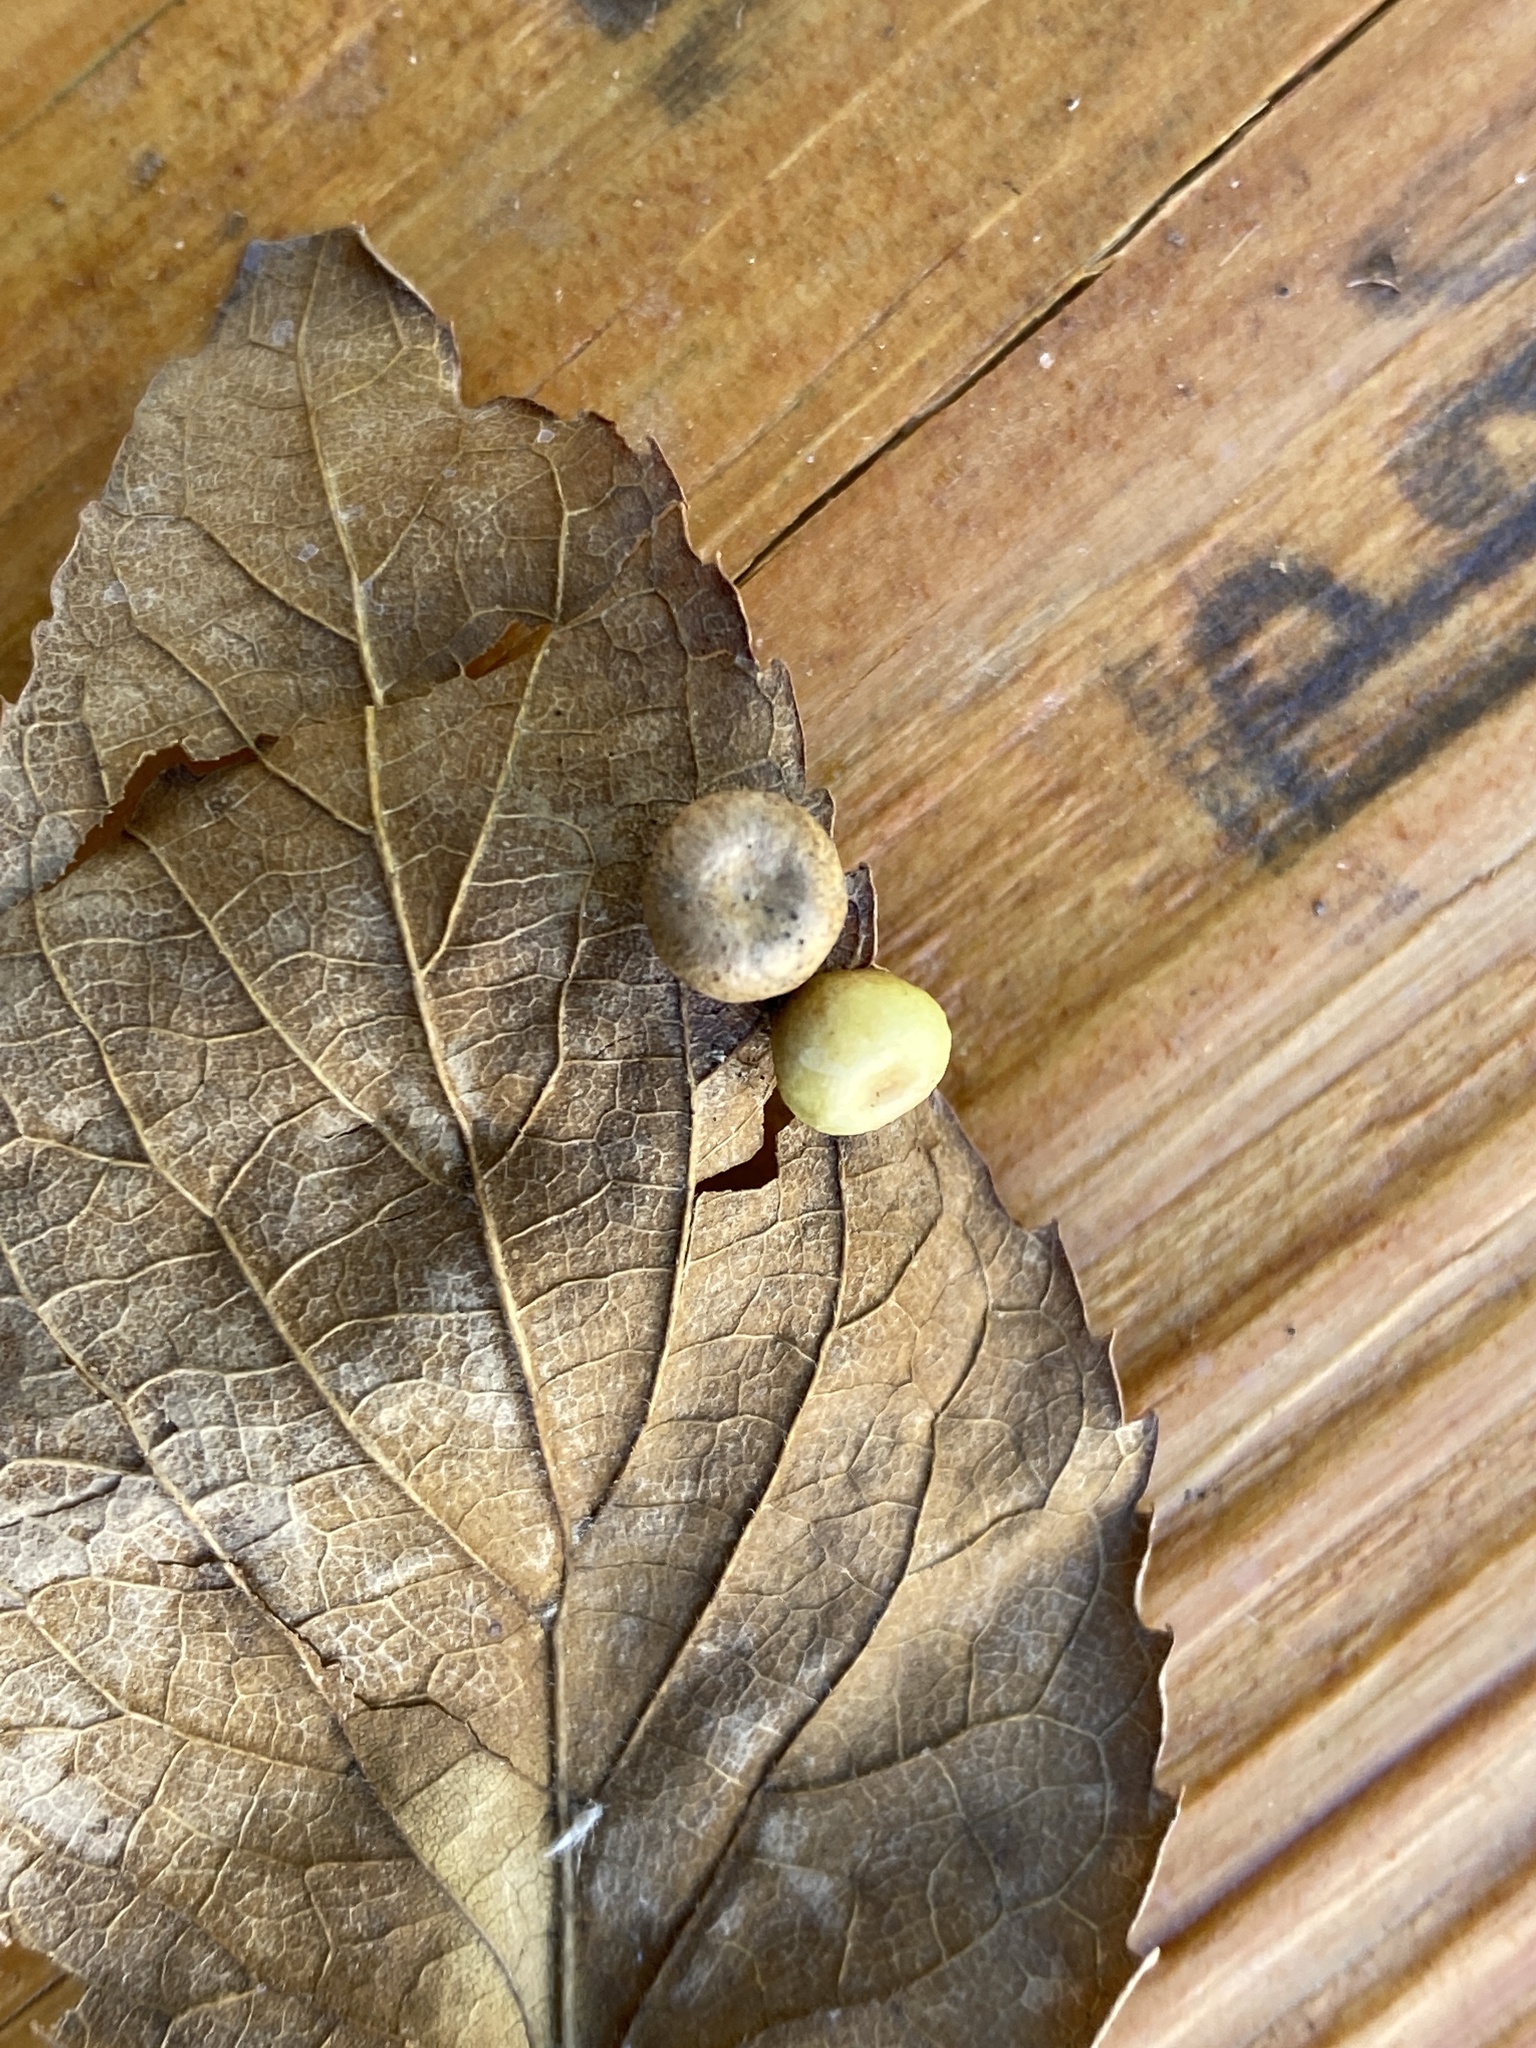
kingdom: Animalia
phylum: Arthropoda
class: Insecta
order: Hemiptera
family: Aphalaridae
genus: Pachypsylla
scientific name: Pachypsylla celtidismamma
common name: Hackberry nipplegall psyllid
